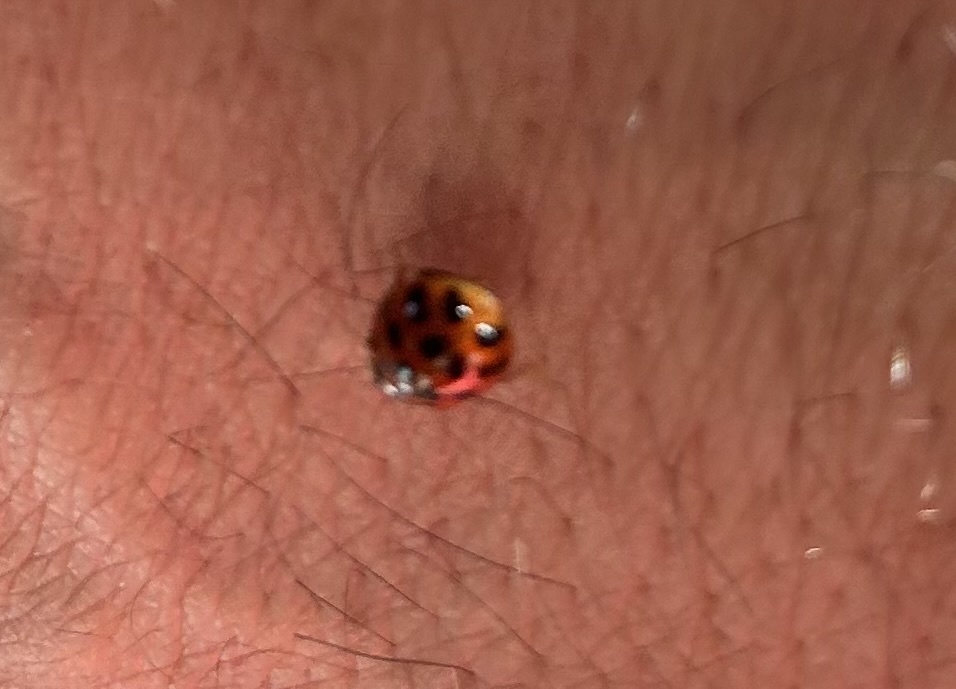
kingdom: Animalia
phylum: Arthropoda
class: Insecta
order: Coleoptera
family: Coccinellidae
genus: Harmonia
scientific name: Harmonia axyridis
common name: Harlequin ladybird
